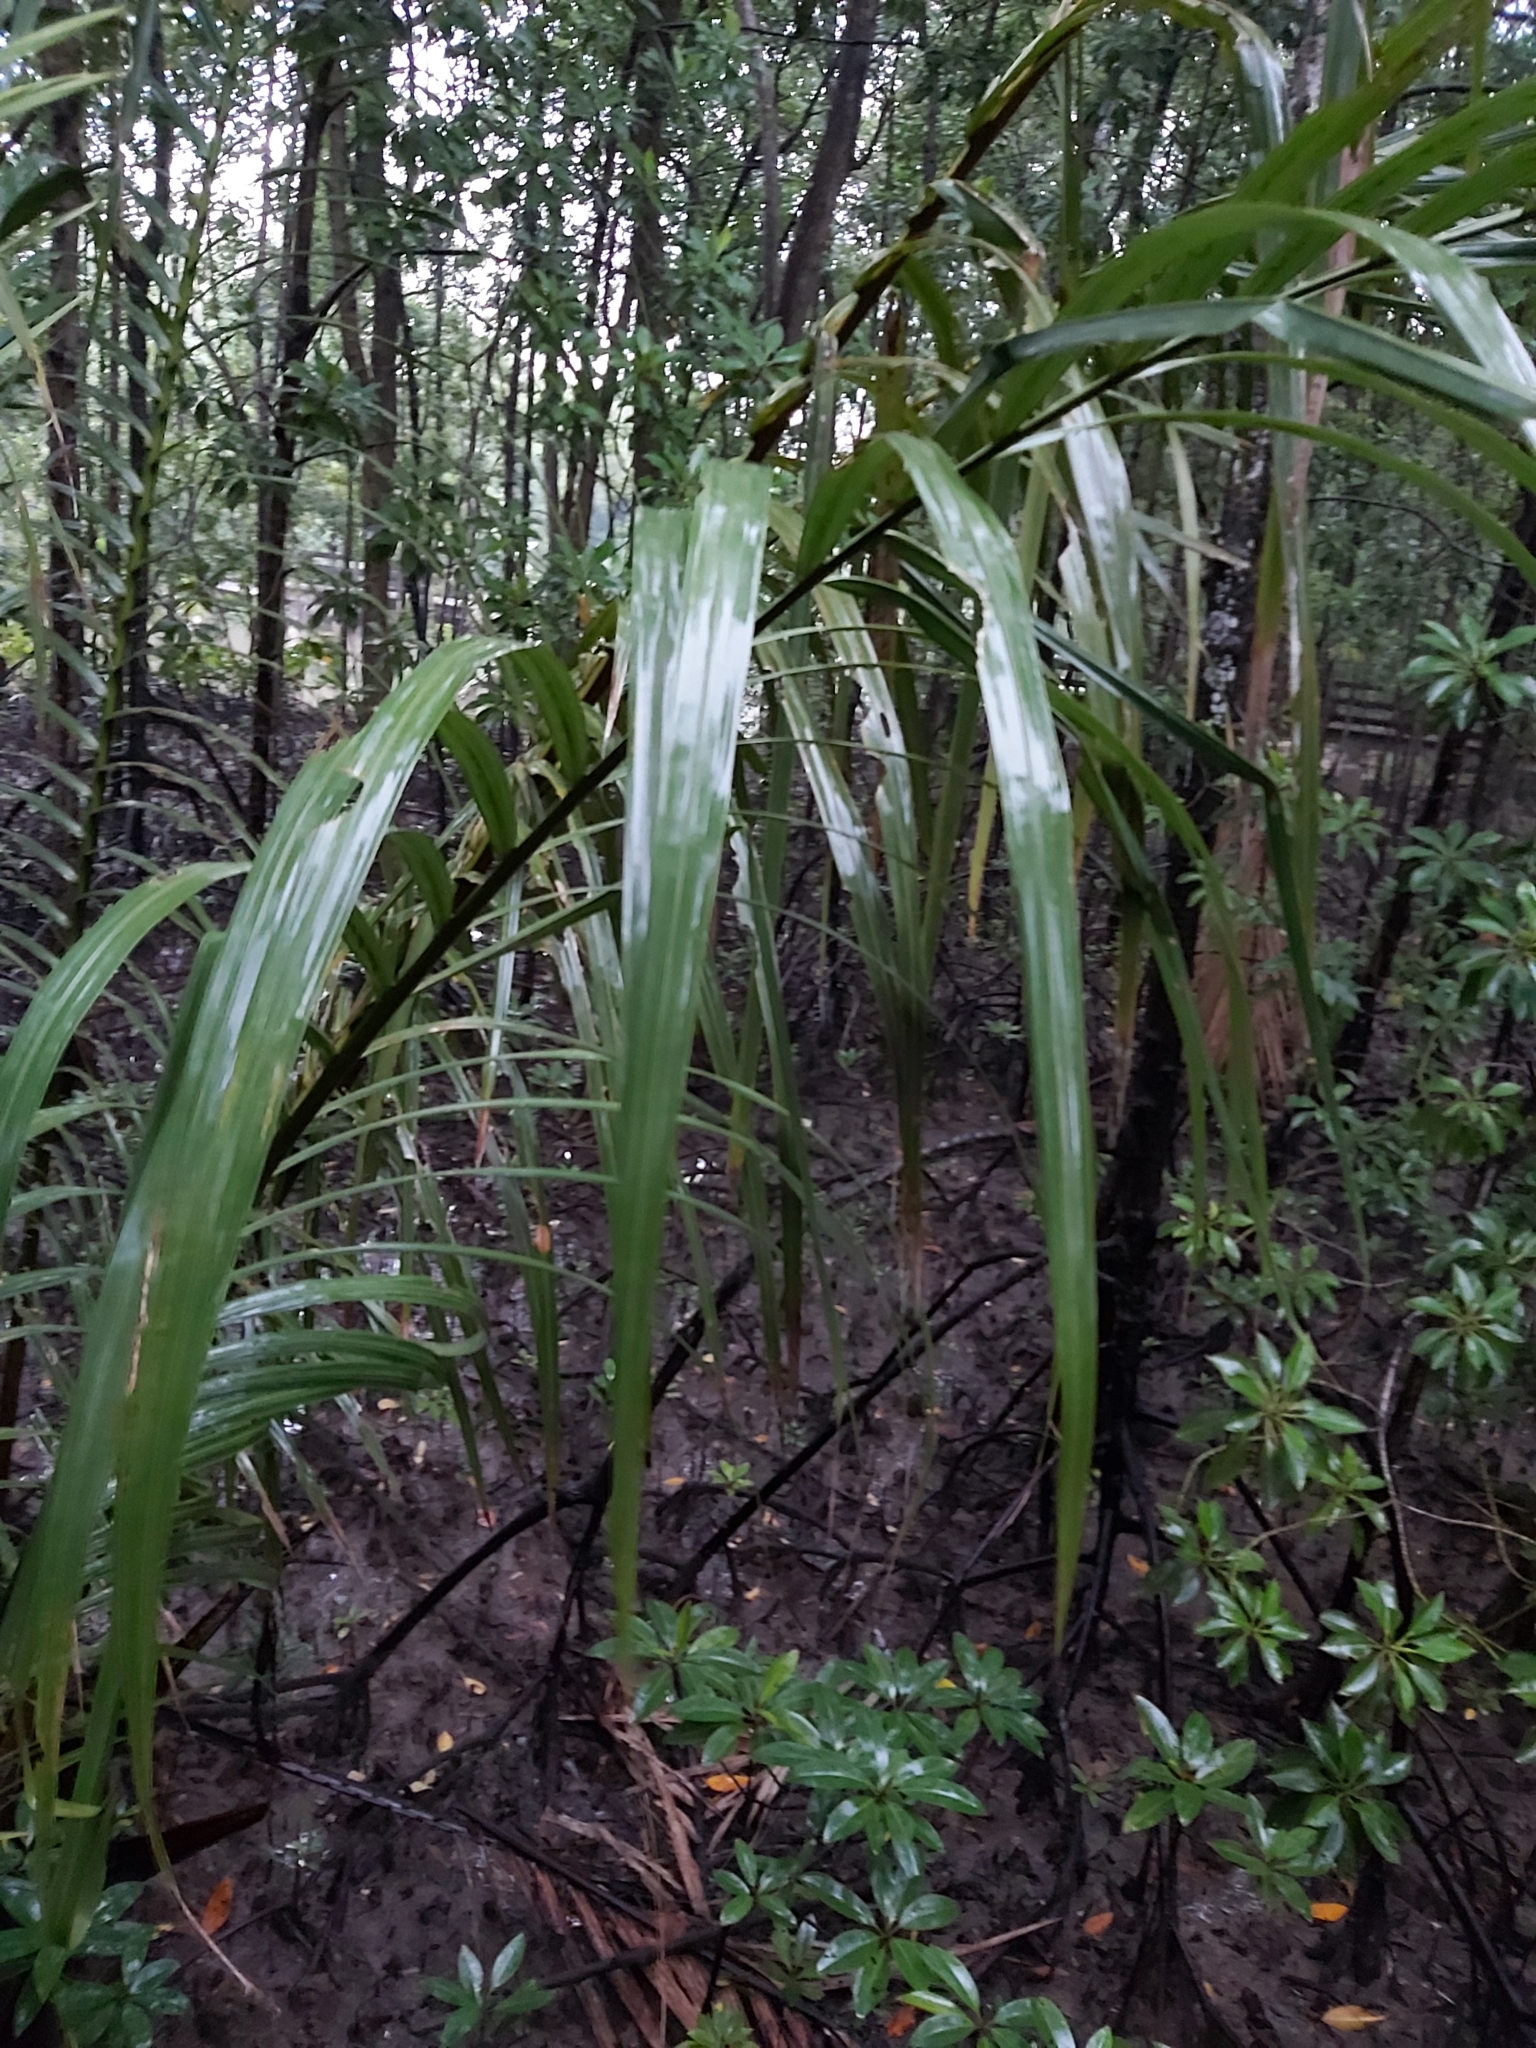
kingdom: Plantae
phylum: Tracheophyta
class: Liliopsida
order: Arecales
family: Arecaceae
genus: Nypa
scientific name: Nypa fruticans
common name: Mangrove palm
